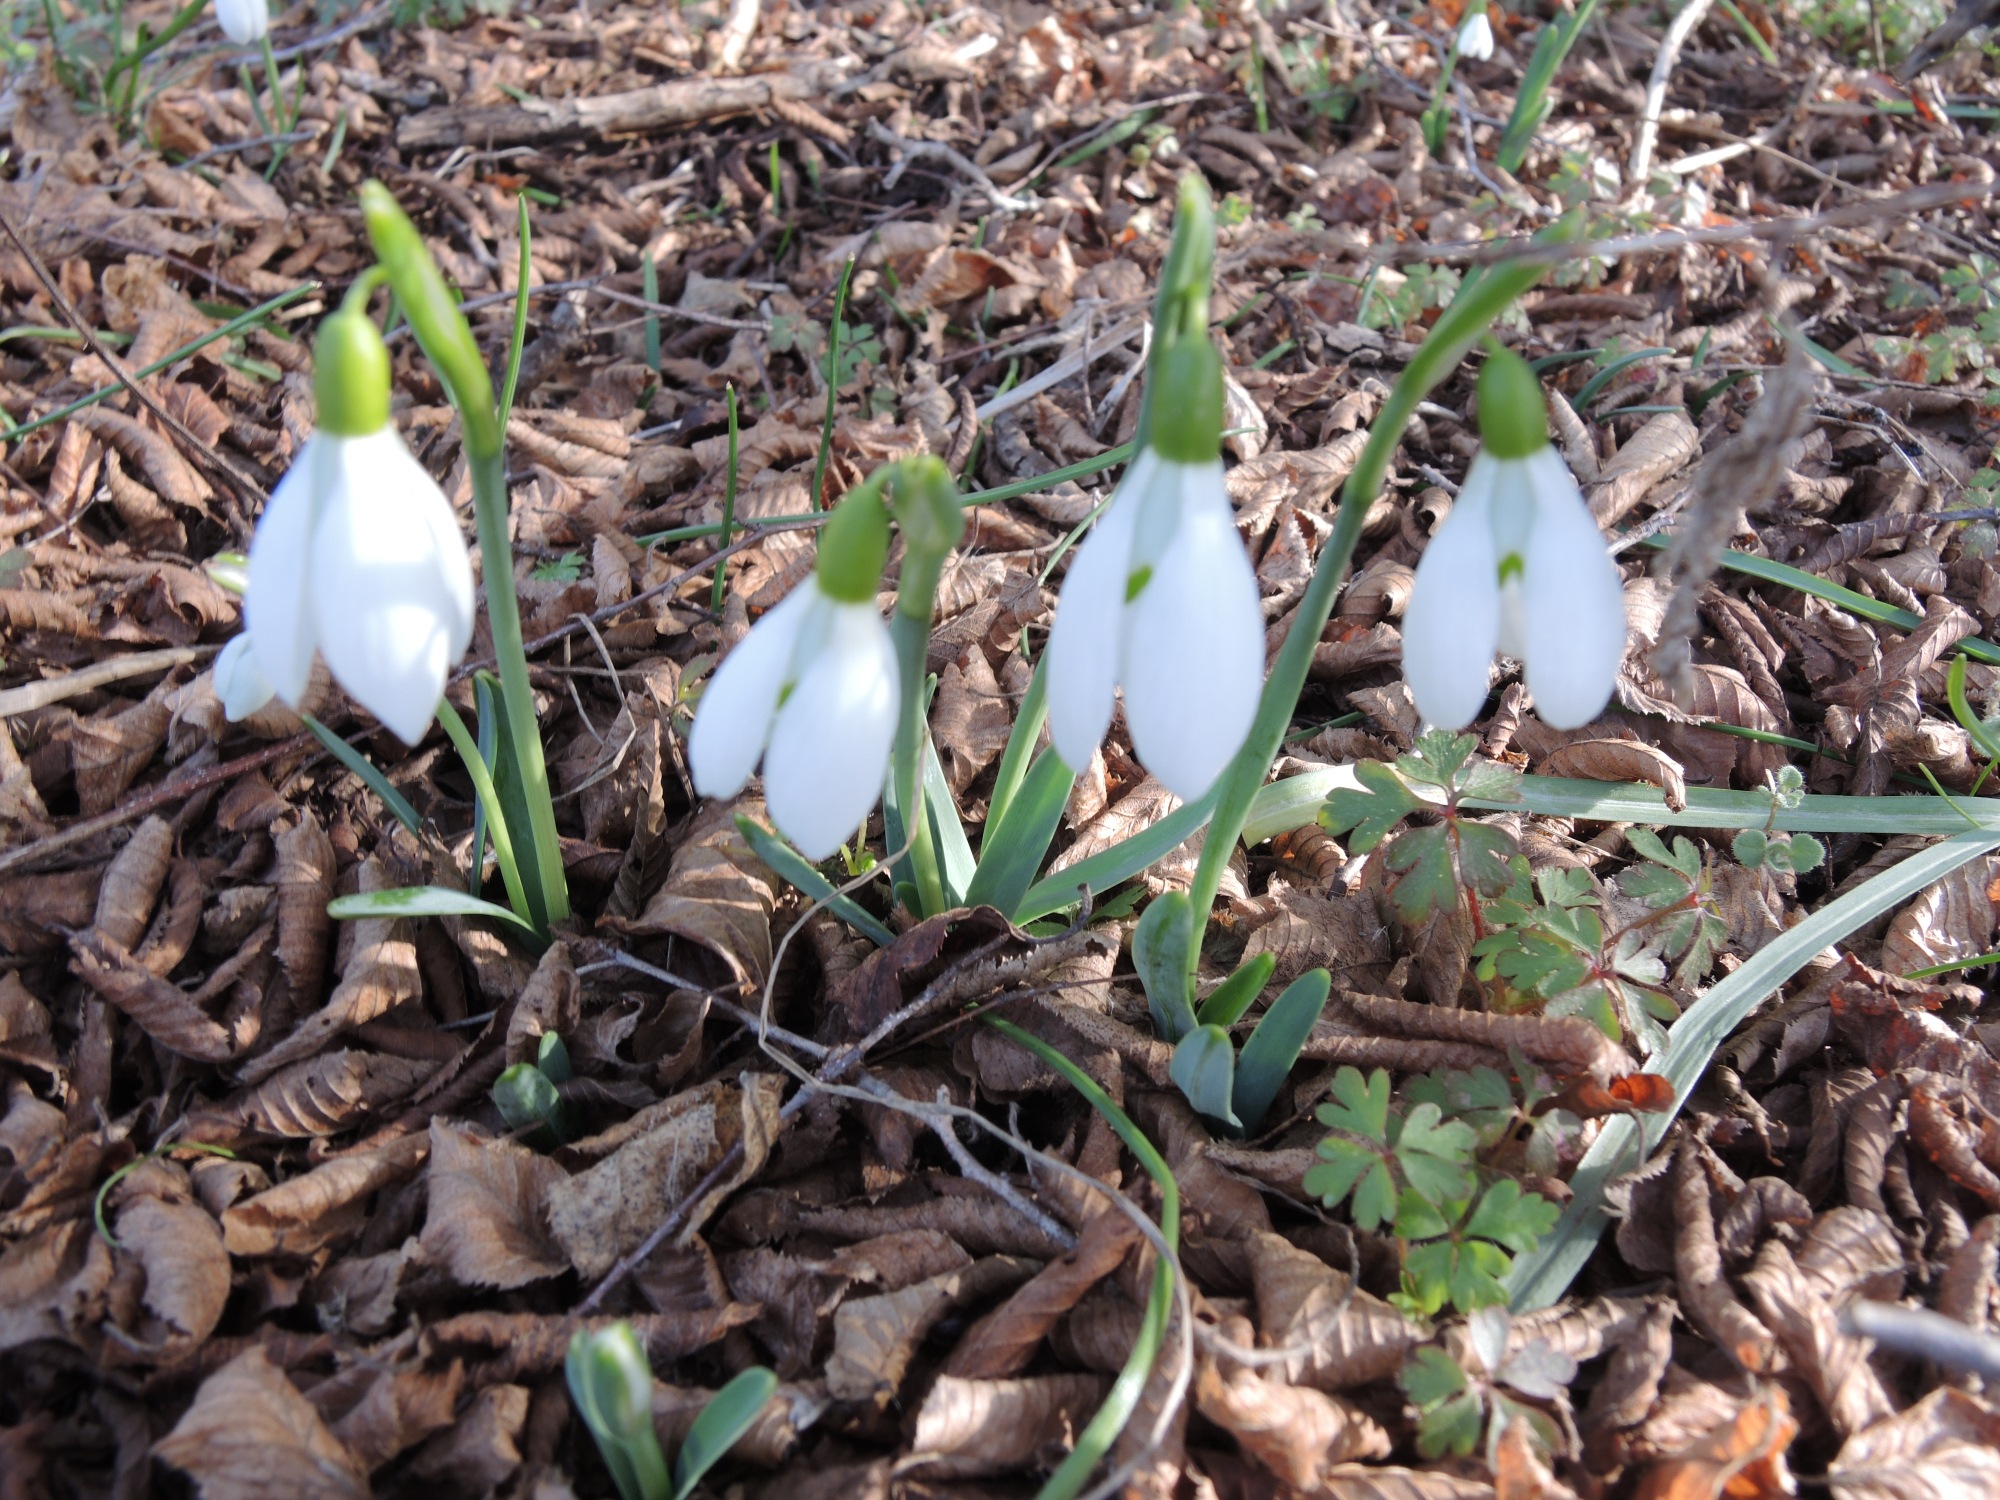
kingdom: Plantae
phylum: Tracheophyta
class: Liliopsida
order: Asparagales
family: Amaryllidaceae
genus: Galanthus
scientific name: Galanthus nivalis
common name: Snowdrop
